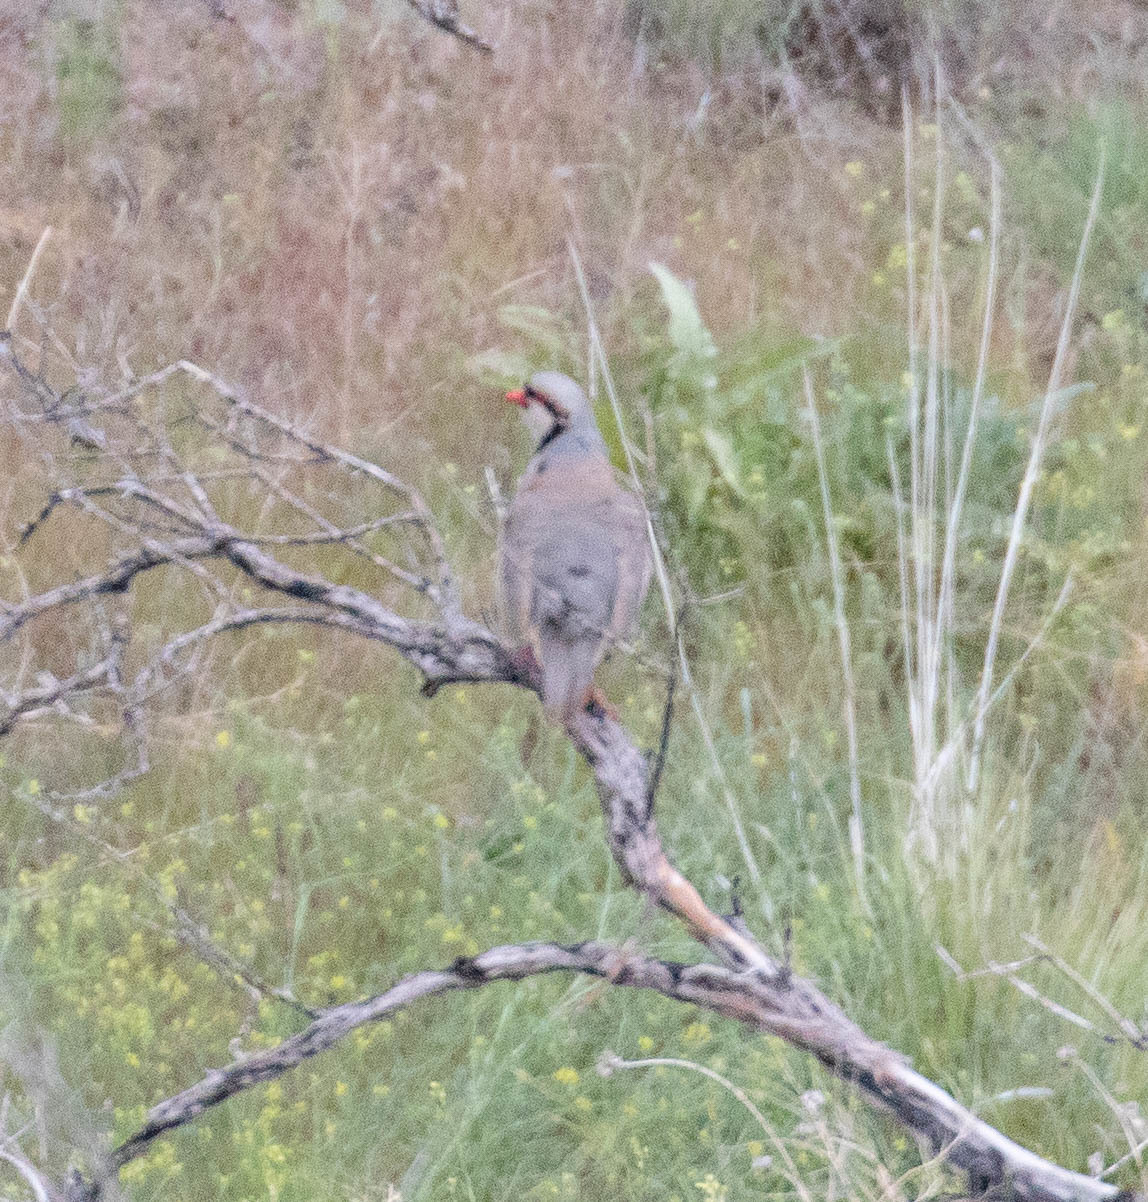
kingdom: Animalia
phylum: Chordata
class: Aves
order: Galliformes
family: Phasianidae
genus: Alectoris
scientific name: Alectoris chukar
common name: Chukar
